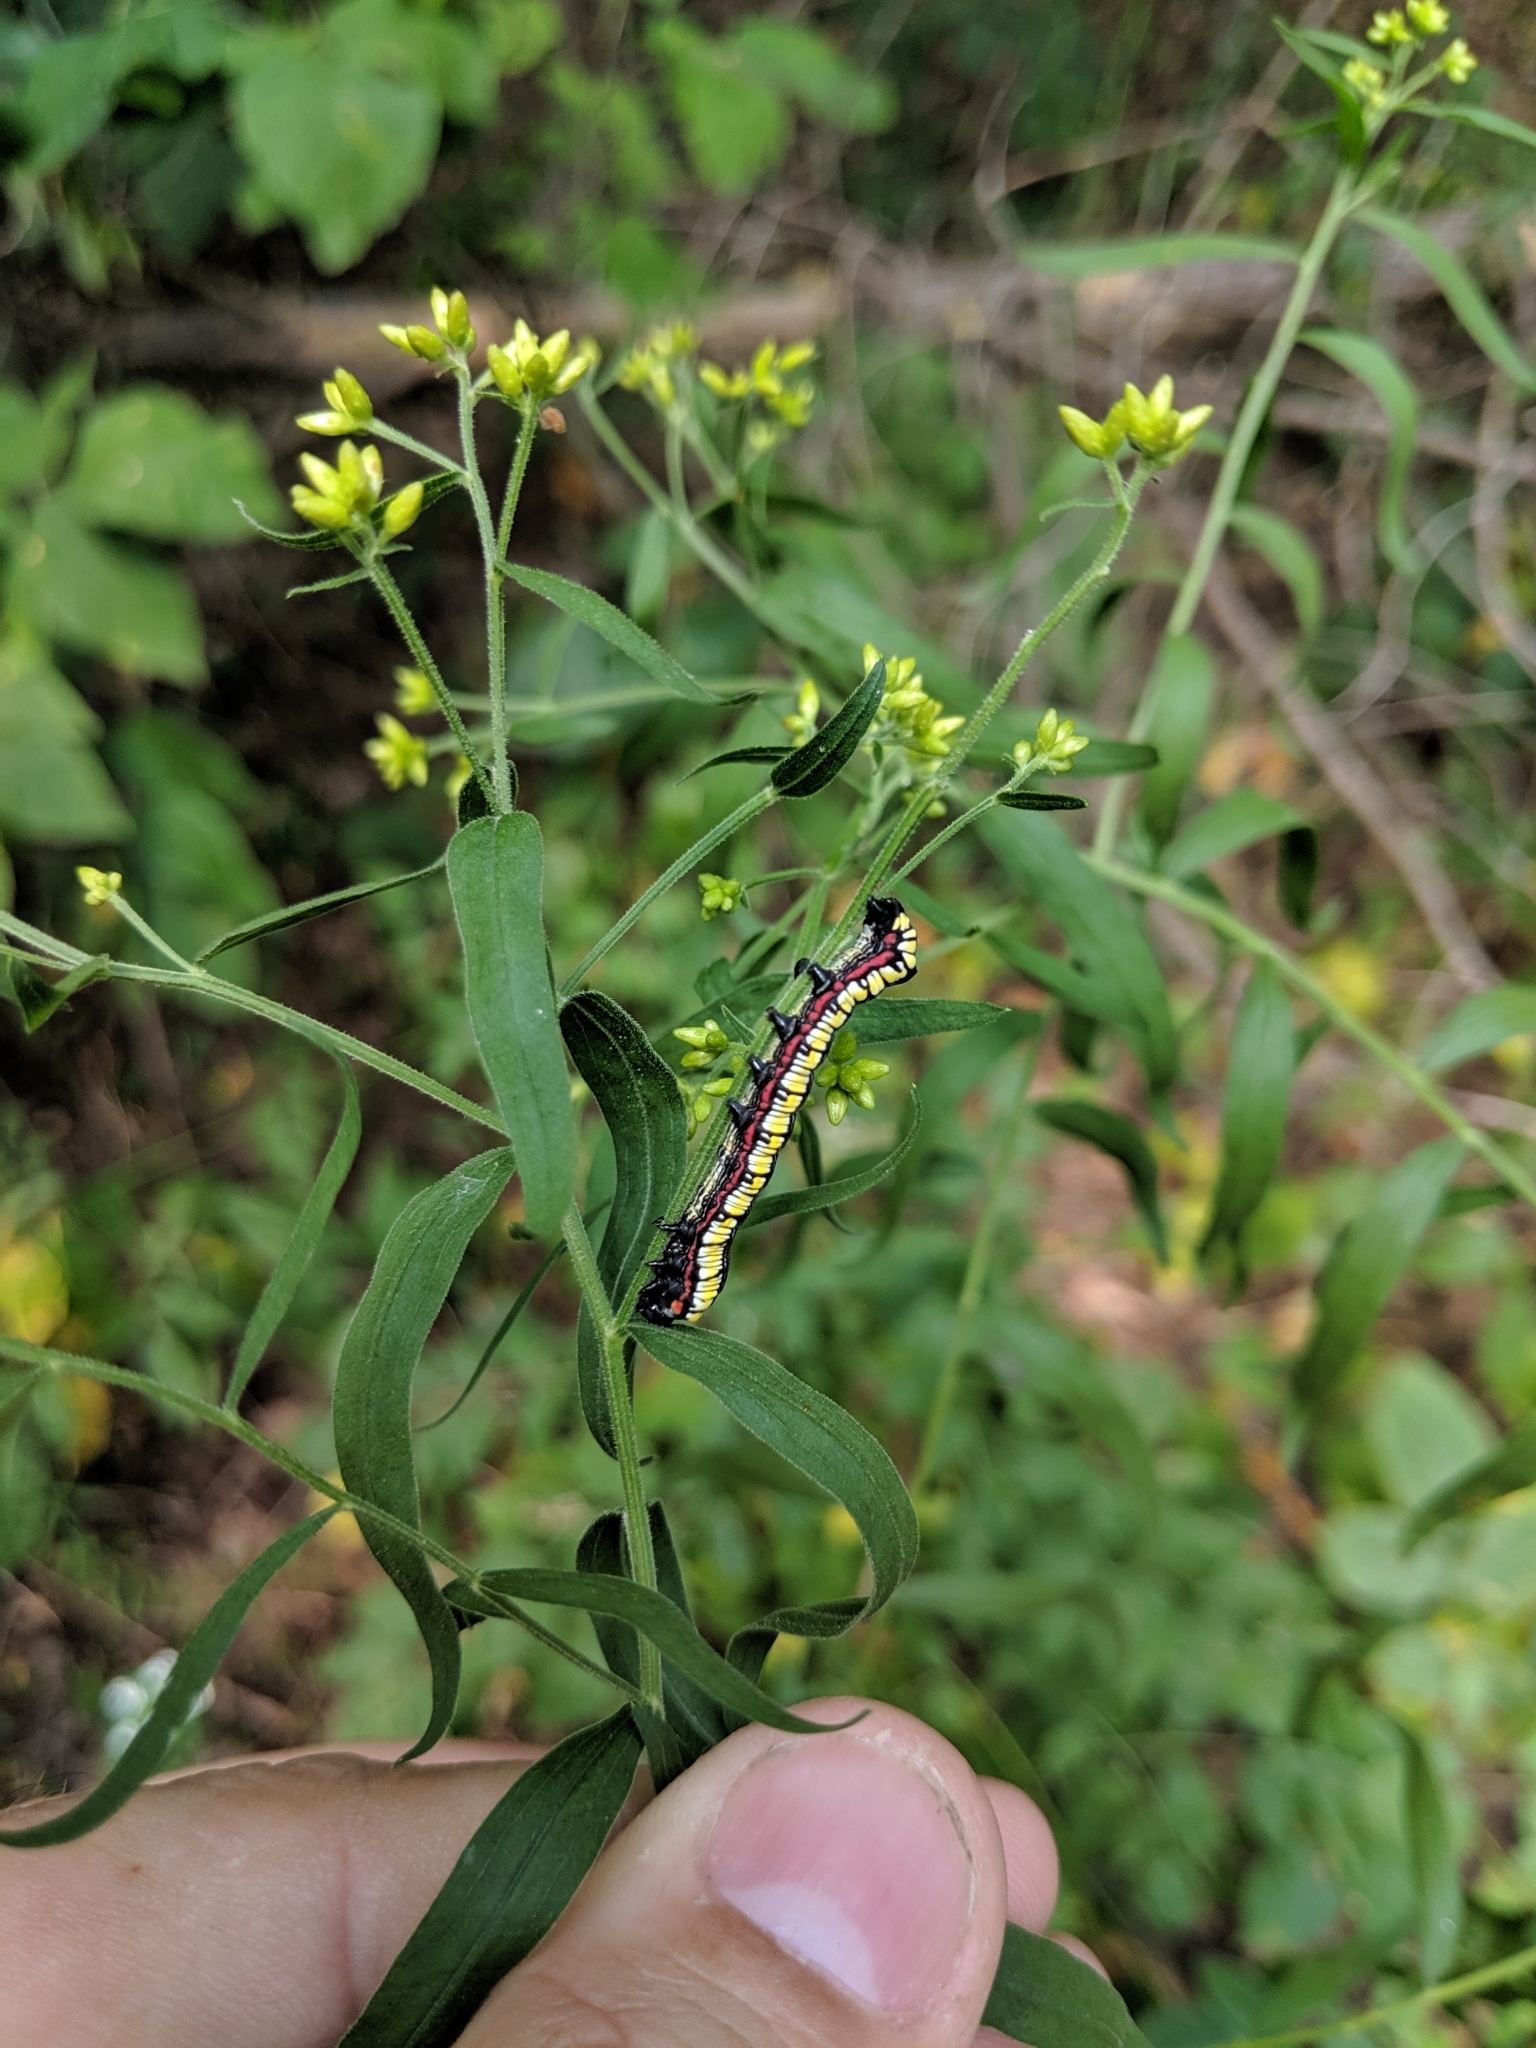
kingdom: Animalia
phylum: Arthropoda
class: Insecta
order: Lepidoptera
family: Noctuidae
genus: Cucullia
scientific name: Cucullia convexipennis
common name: Brown-hooded owlet
